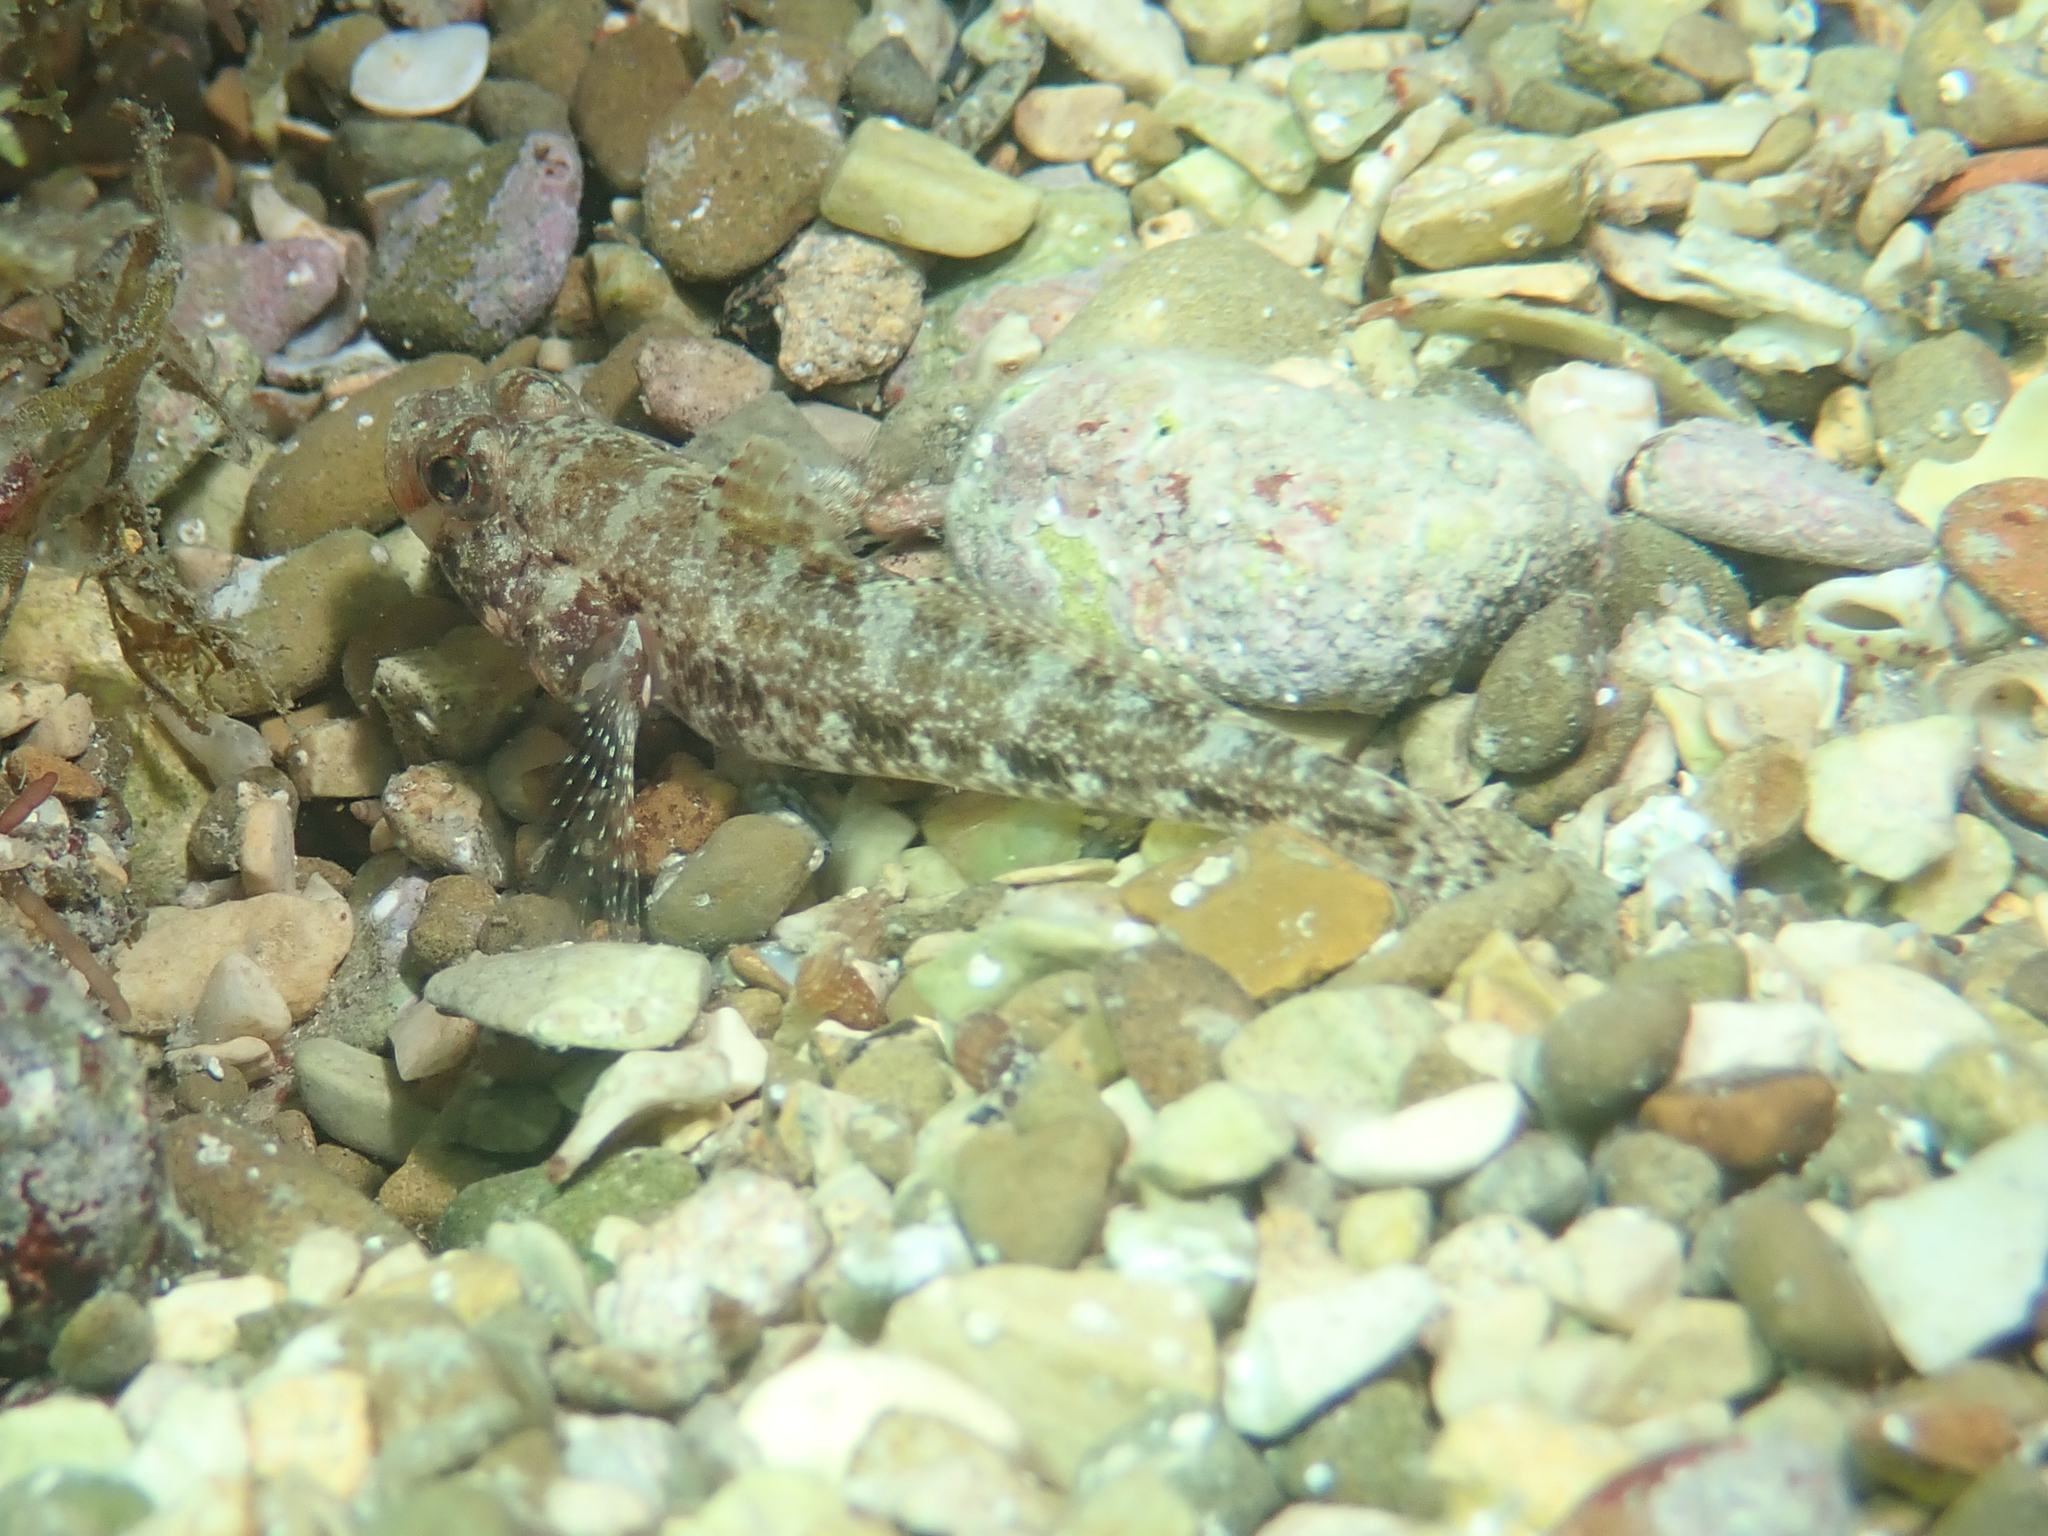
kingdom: Animalia
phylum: Chordata
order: Perciformes
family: Gobiidae
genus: Gobius
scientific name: Gobius cruentatus
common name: Red-mouthed goby
